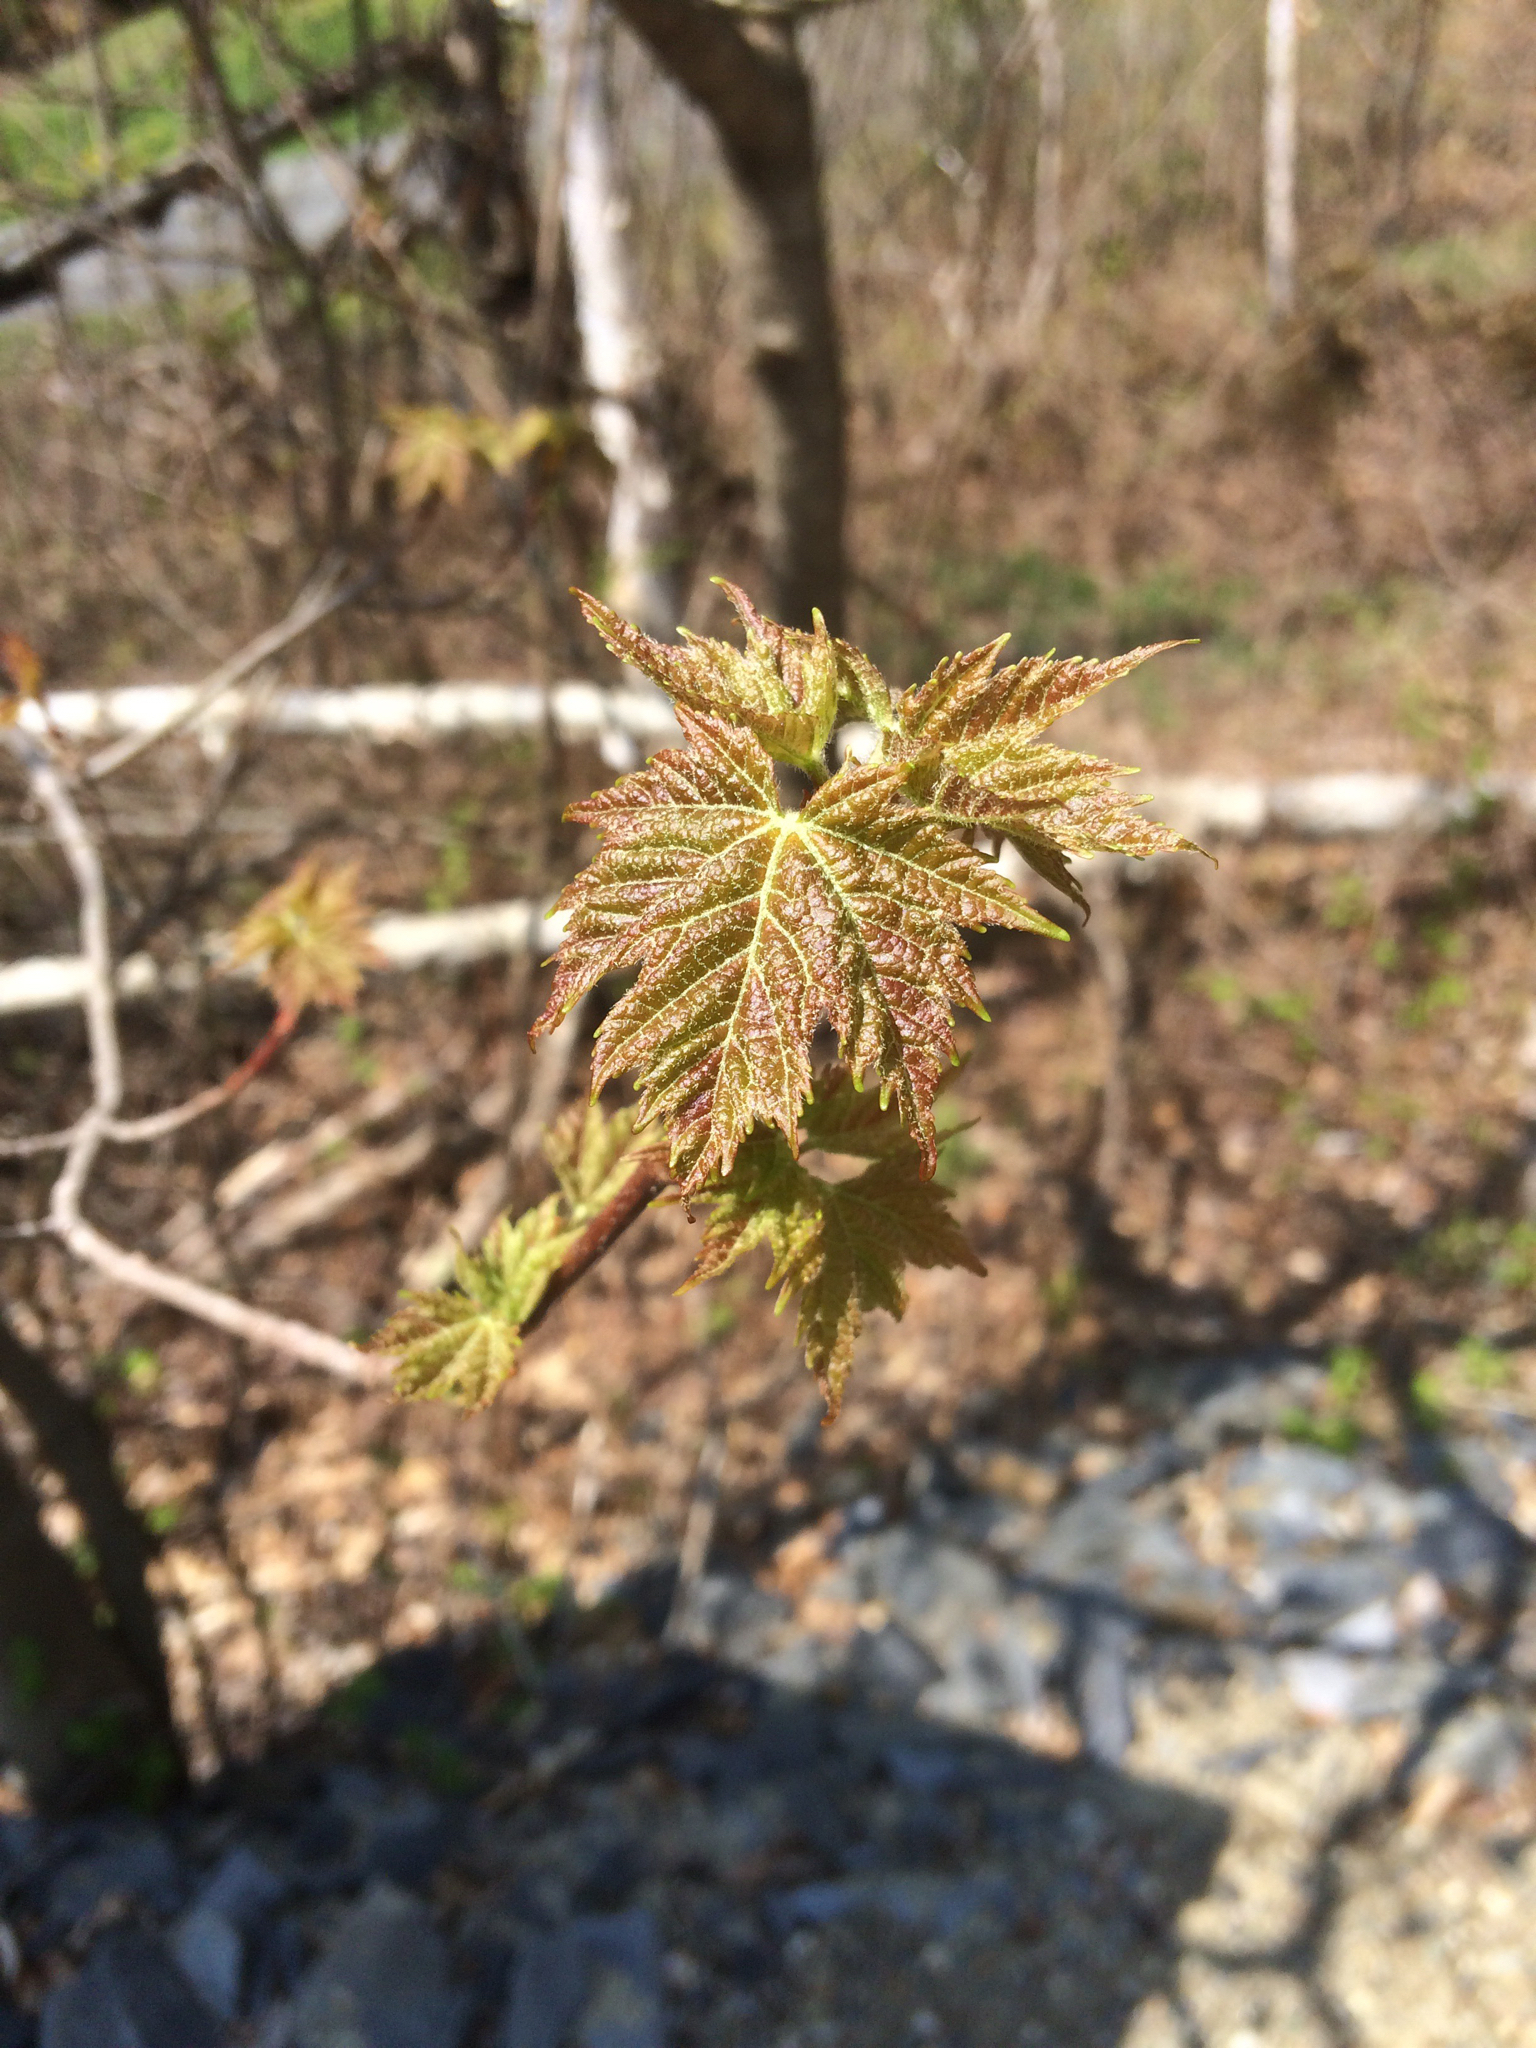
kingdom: Plantae
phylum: Tracheophyta
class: Magnoliopsida
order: Sapindales
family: Sapindaceae
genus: Acer
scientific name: Acer rubrum
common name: Red maple
